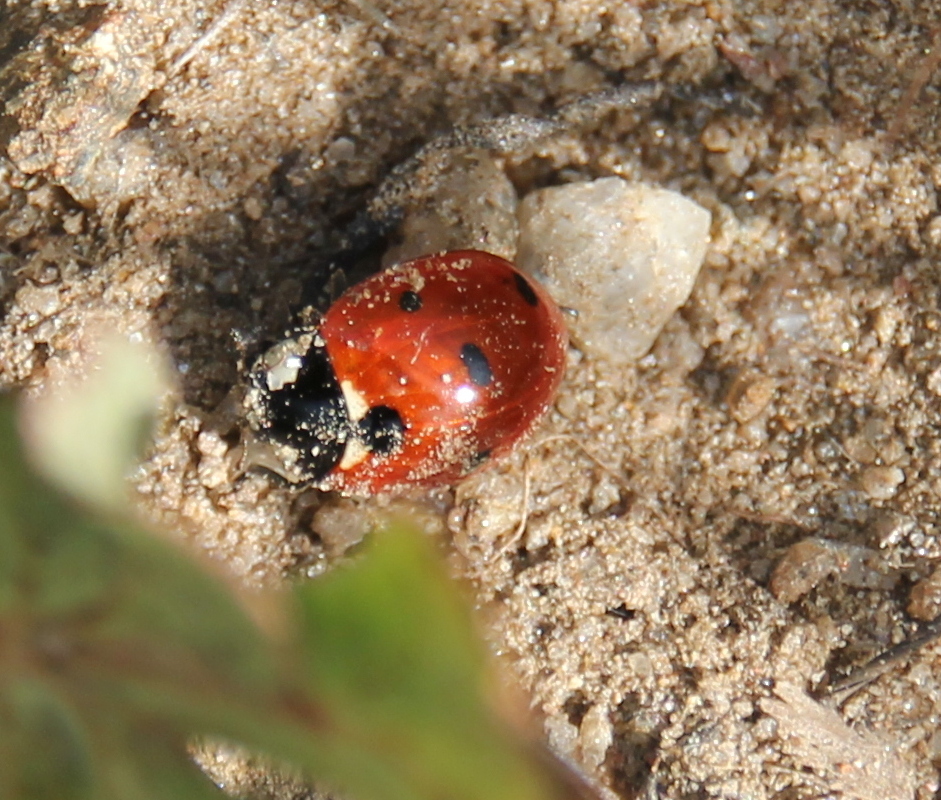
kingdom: Animalia
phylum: Arthropoda
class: Insecta
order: Coleoptera
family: Coccinellidae
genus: Coccinella
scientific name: Coccinella septempunctata
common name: Sevenspotted lady beetle
